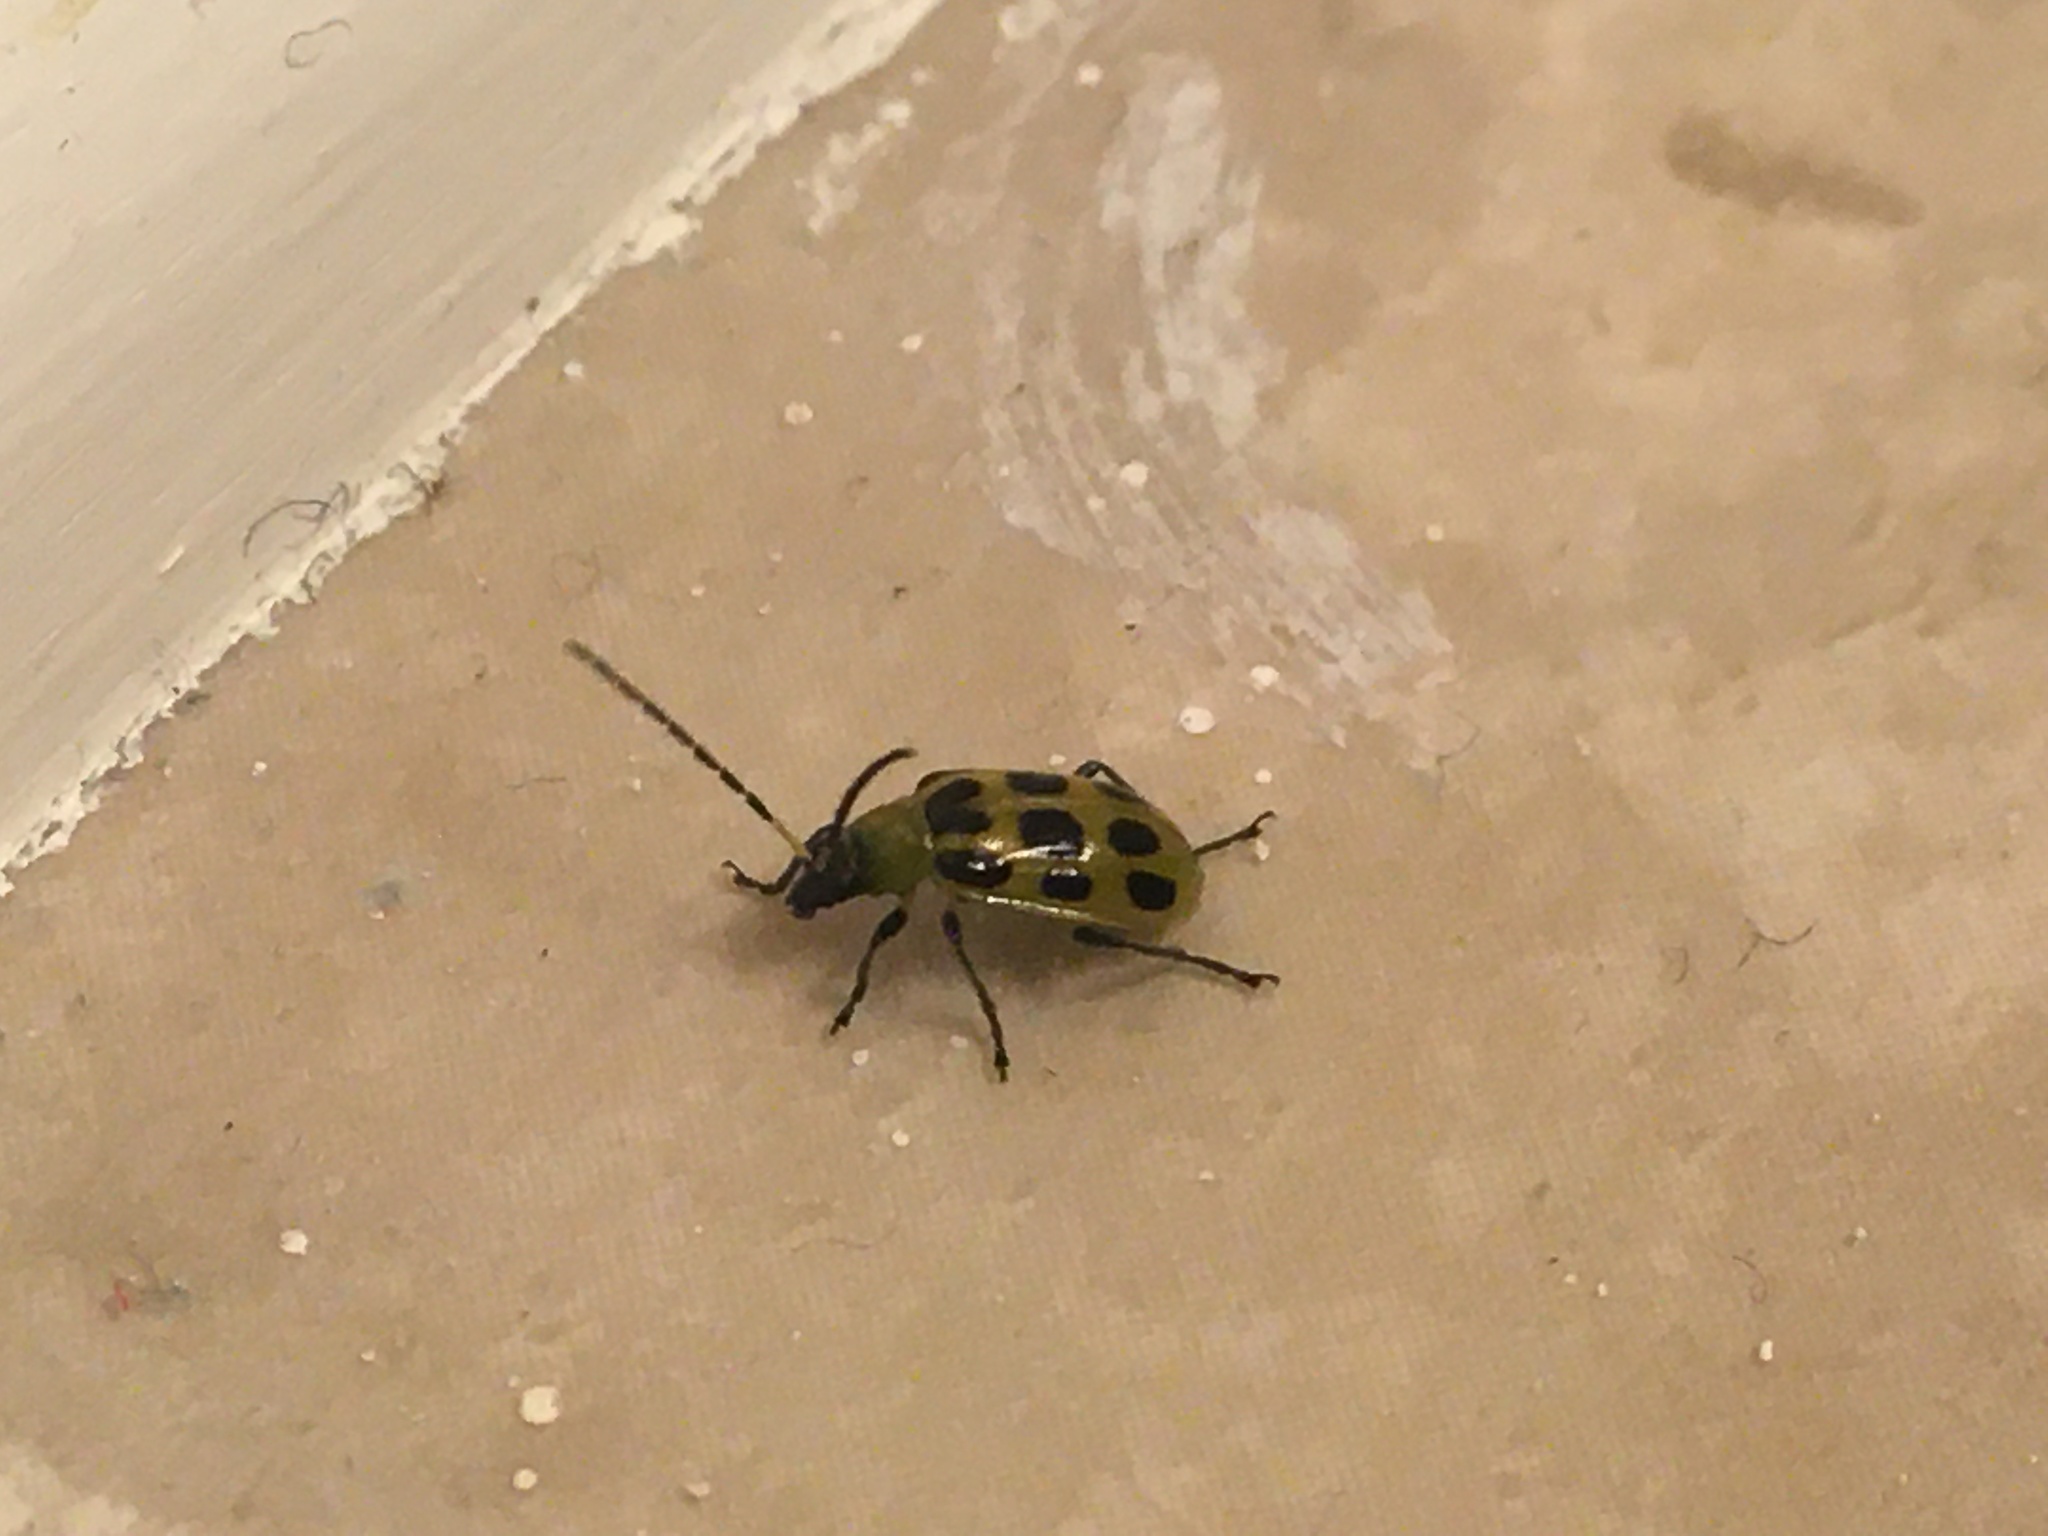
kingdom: Animalia
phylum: Arthropoda
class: Insecta
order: Coleoptera
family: Chrysomelidae
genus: Diabrotica
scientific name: Diabrotica undecimpunctata
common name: Spotted cucumber beetle
